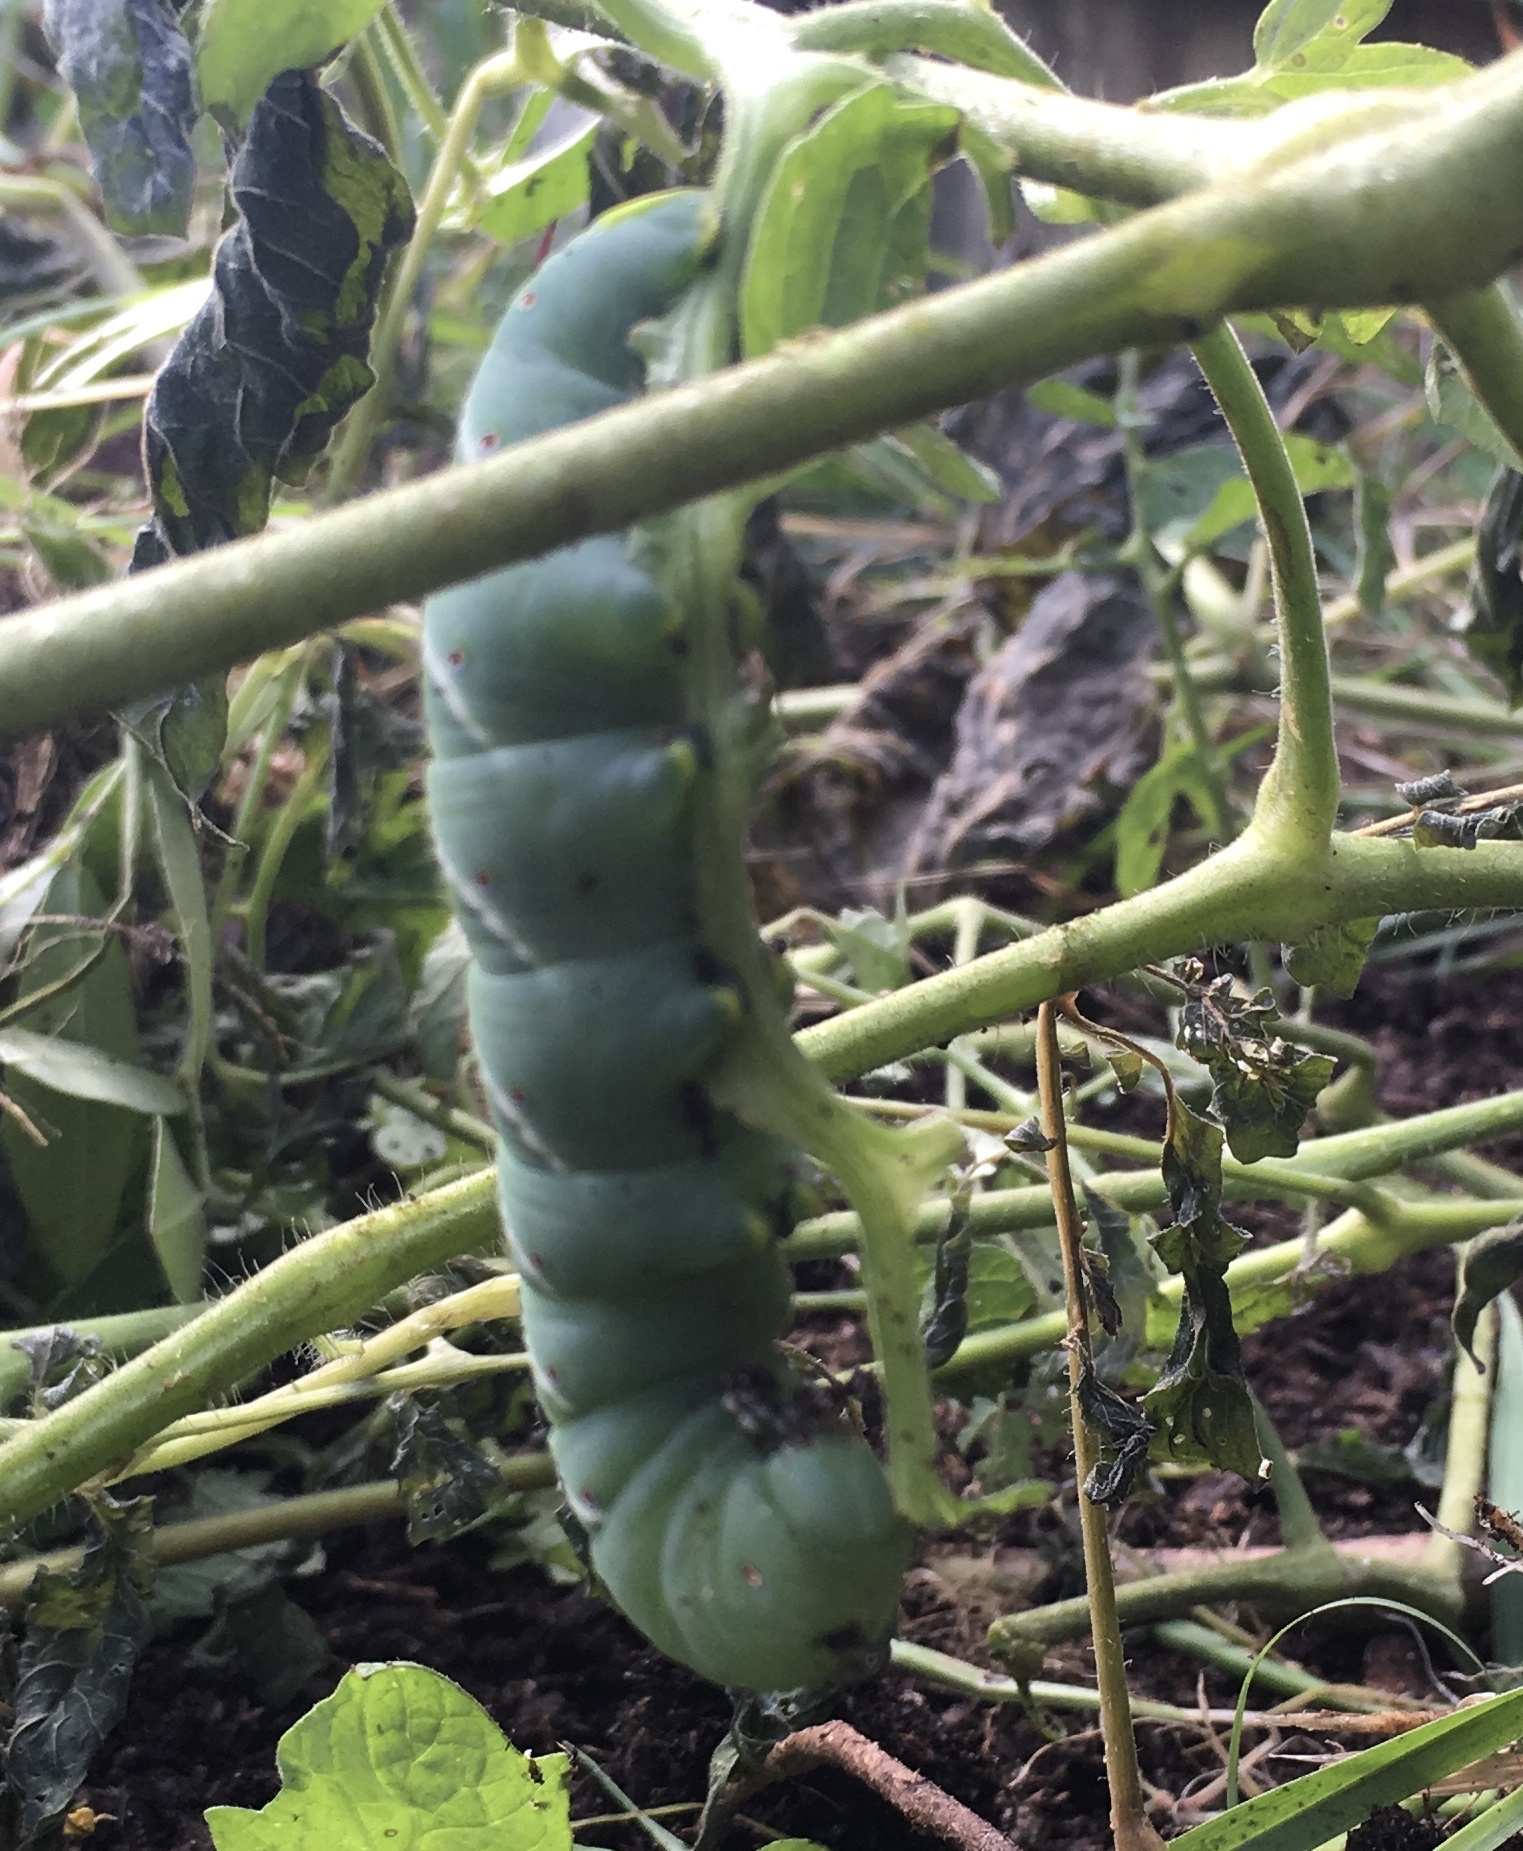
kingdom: Animalia
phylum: Arthropoda
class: Insecta
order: Lepidoptera
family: Sphingidae
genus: Manduca
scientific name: Manduca sexta
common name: Carolina sphinx
